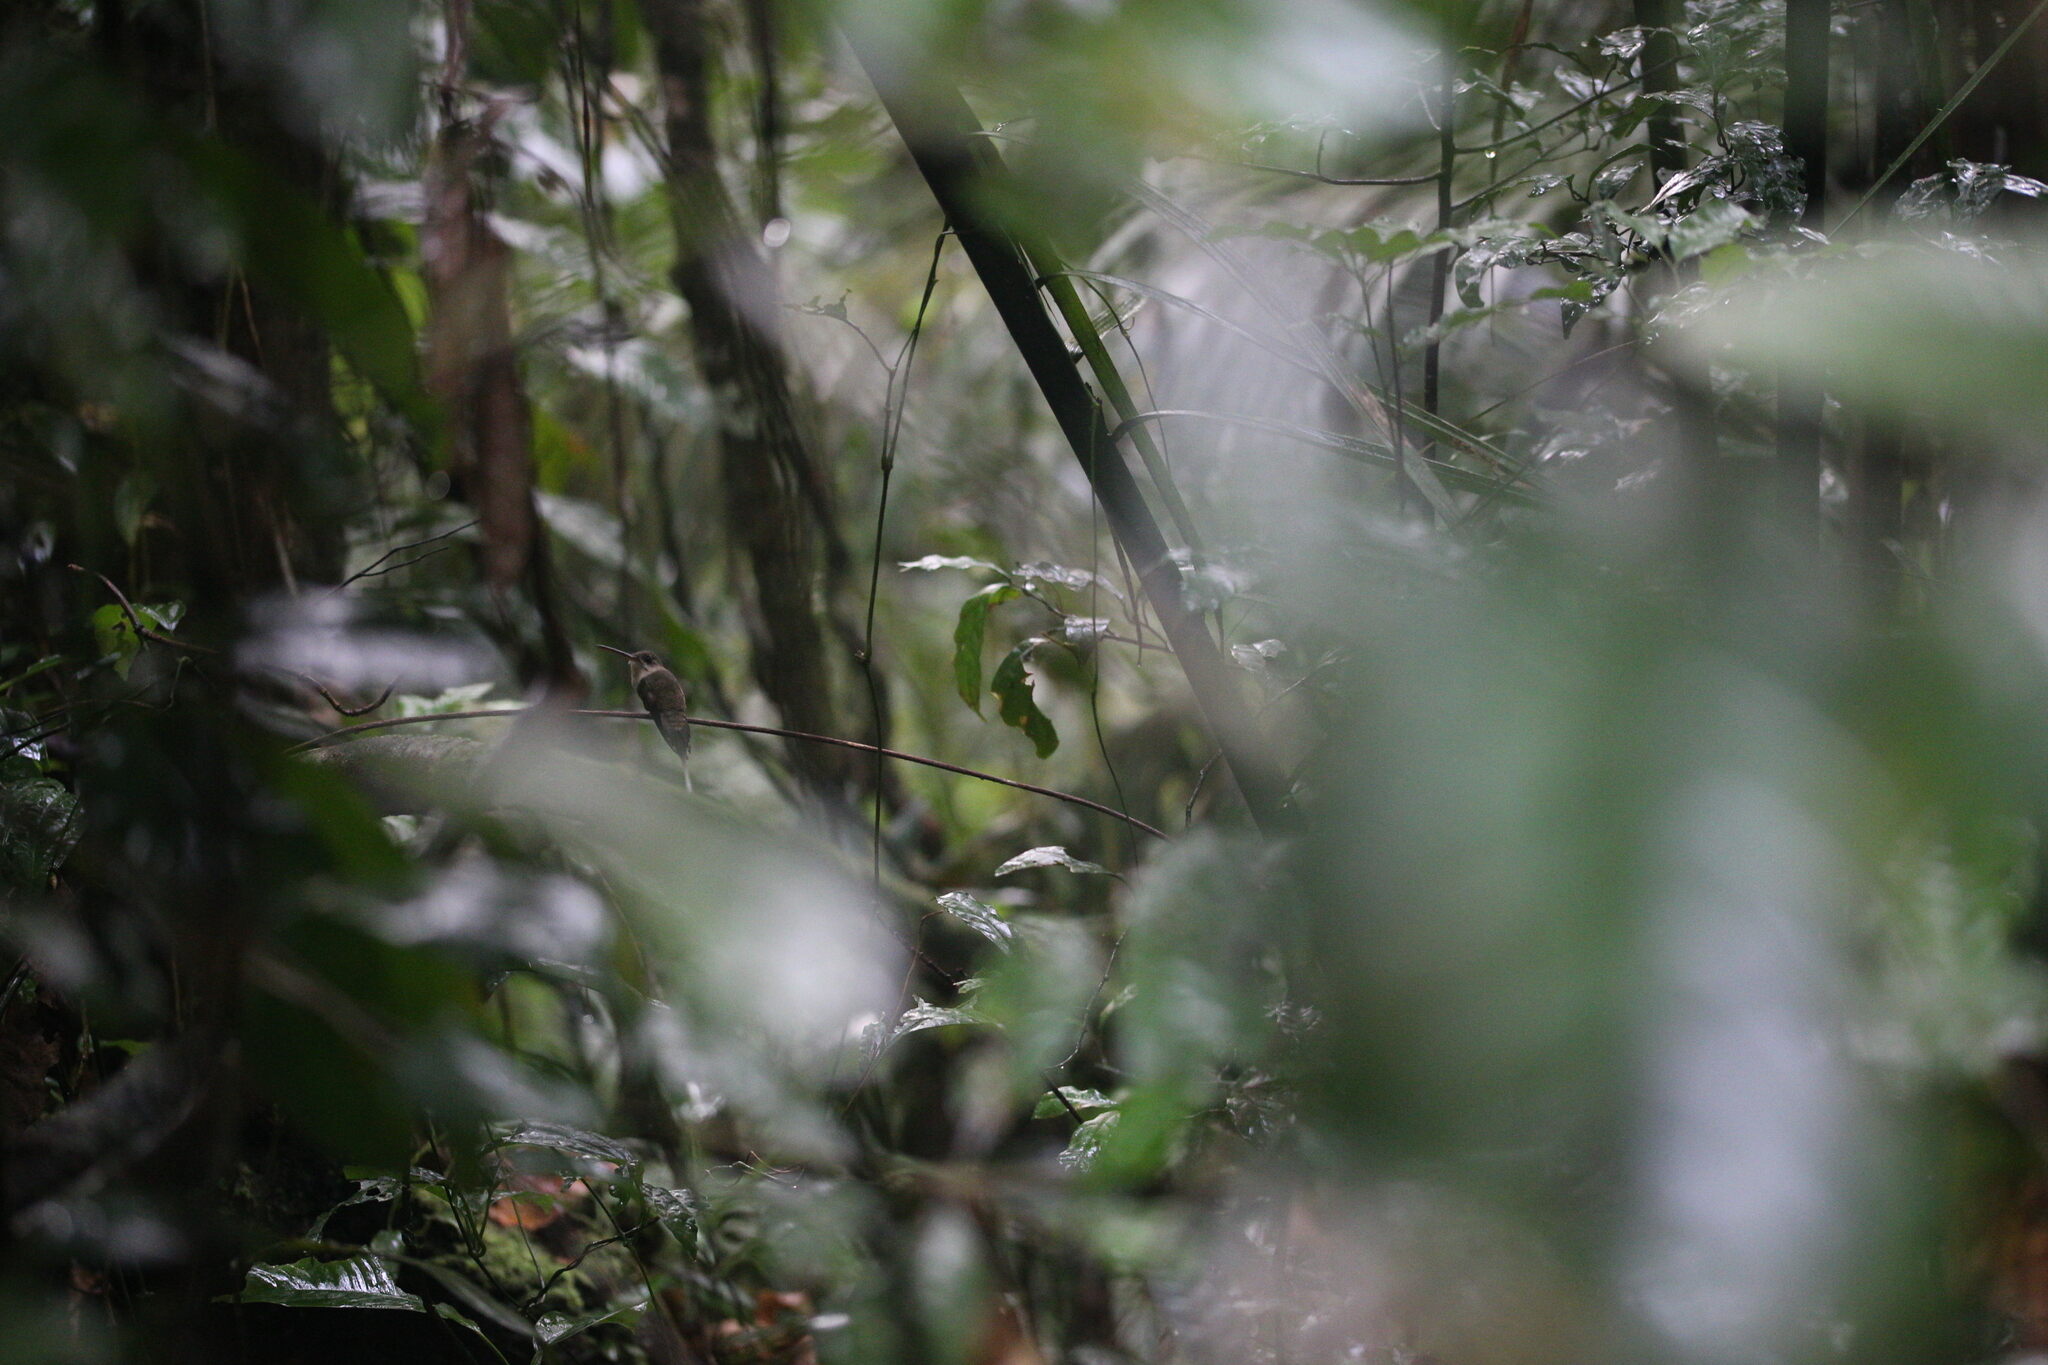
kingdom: Animalia
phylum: Chordata
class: Aves
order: Apodiformes
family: Trochilidae
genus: Phaethornis
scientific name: Phaethornis bourcieri
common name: Straight-billed hermit
